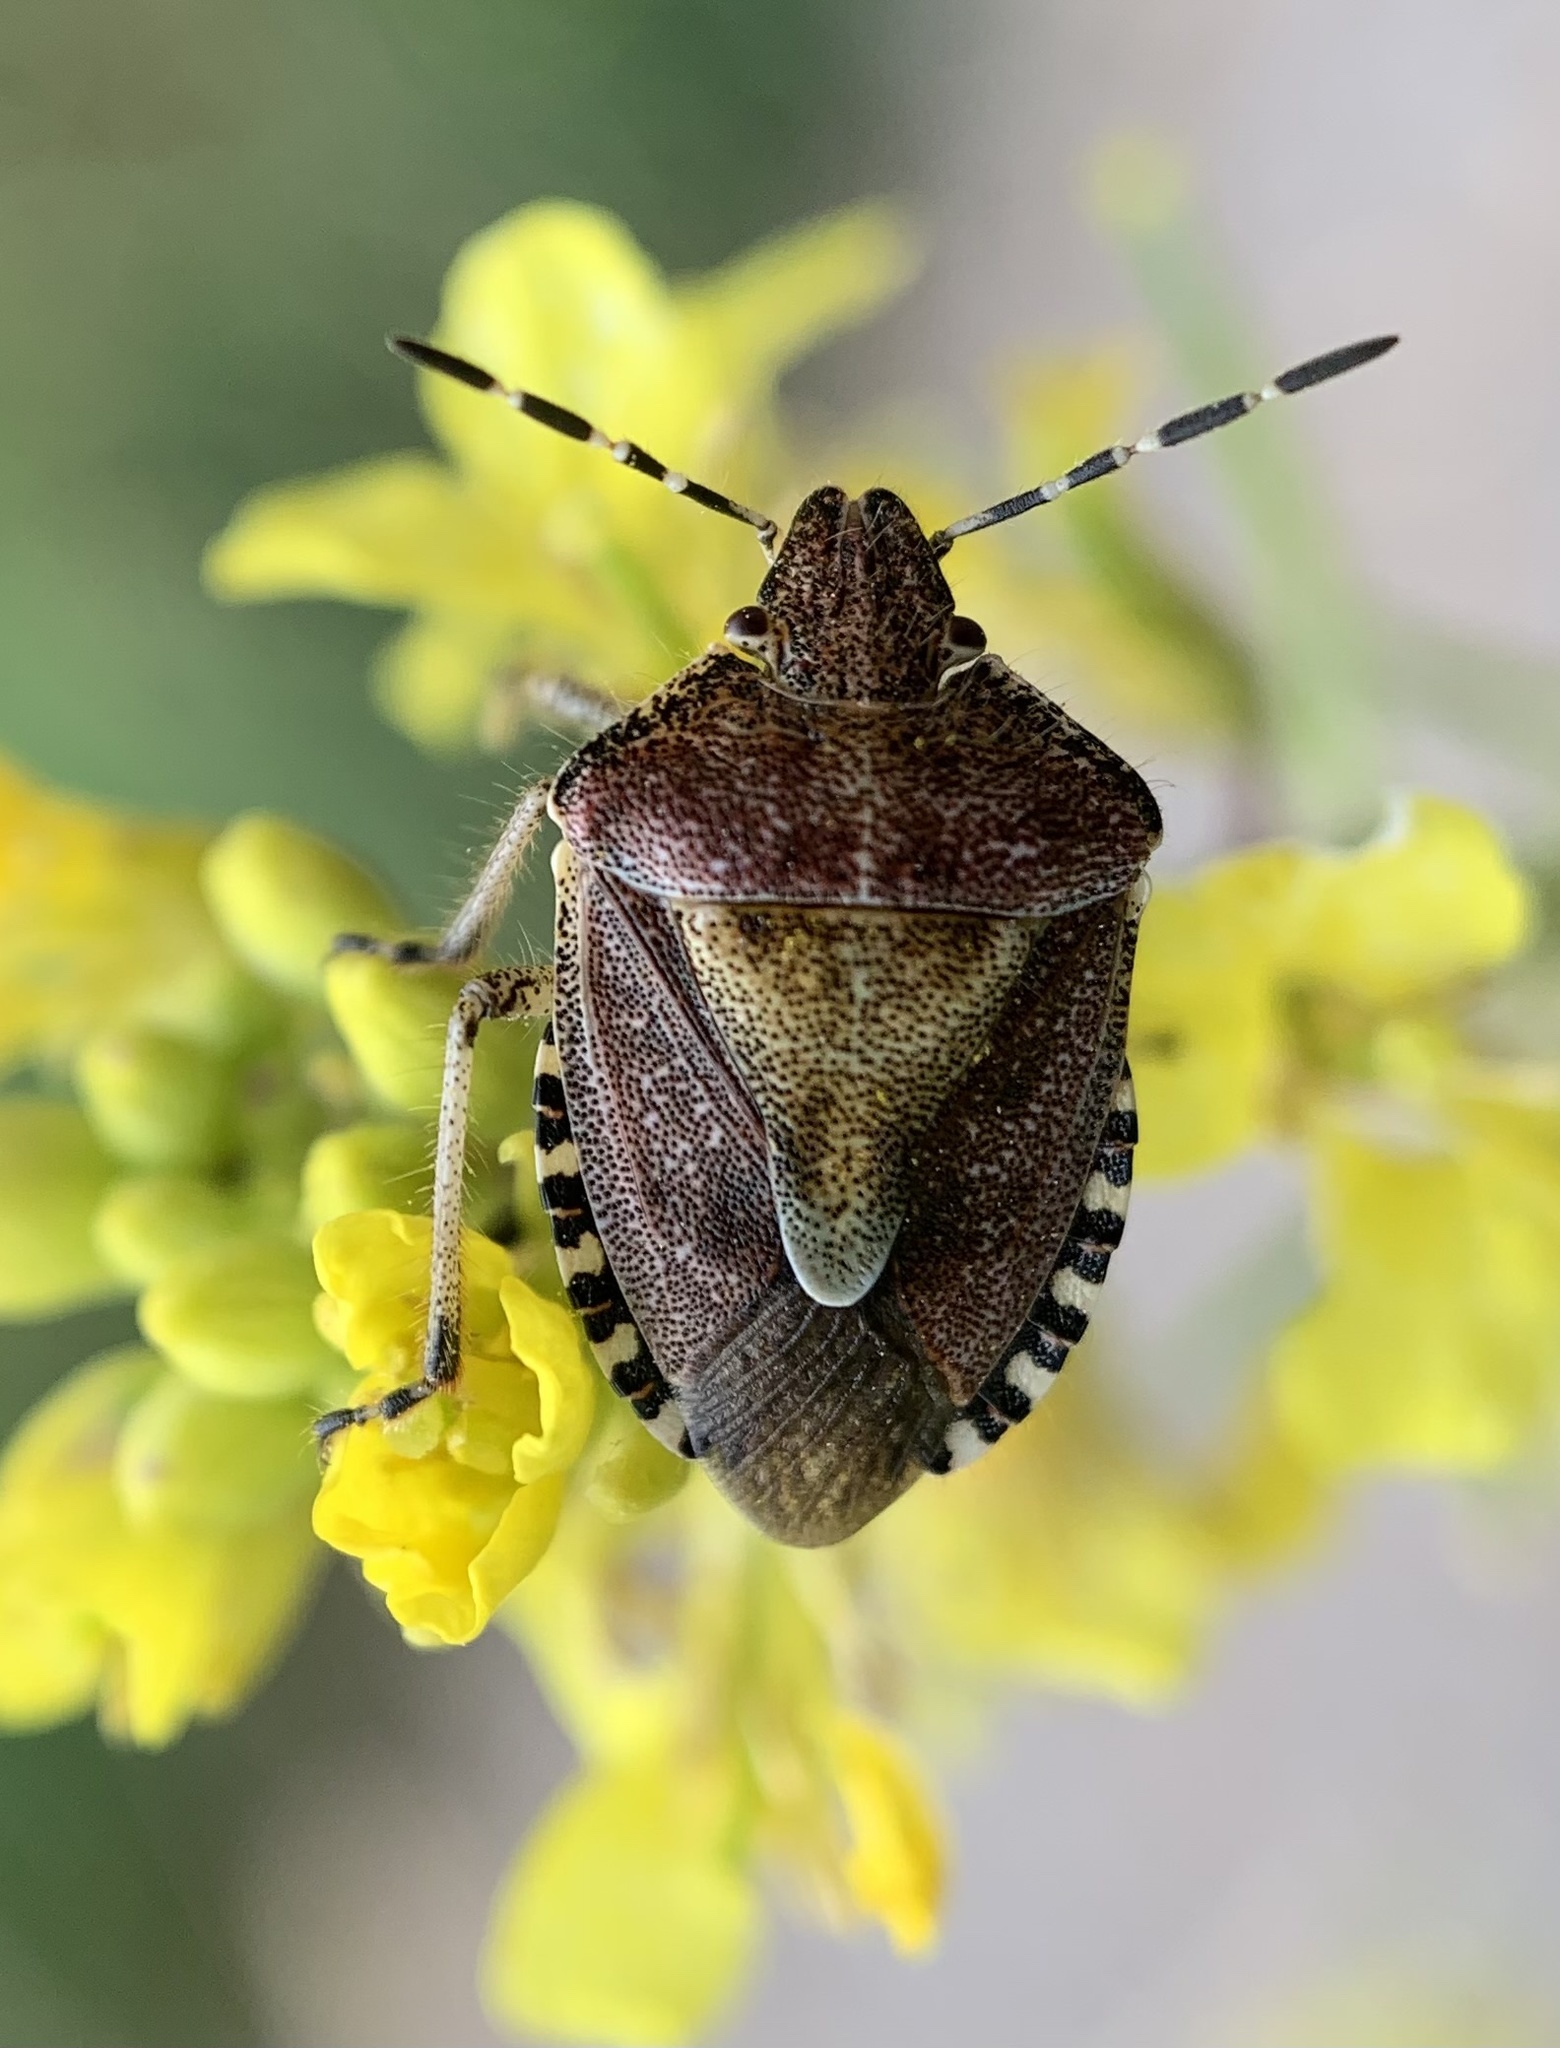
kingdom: Animalia
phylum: Arthropoda
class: Insecta
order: Hemiptera
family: Pentatomidae
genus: Dolycoris
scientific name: Dolycoris baccarum
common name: Sloe bug
